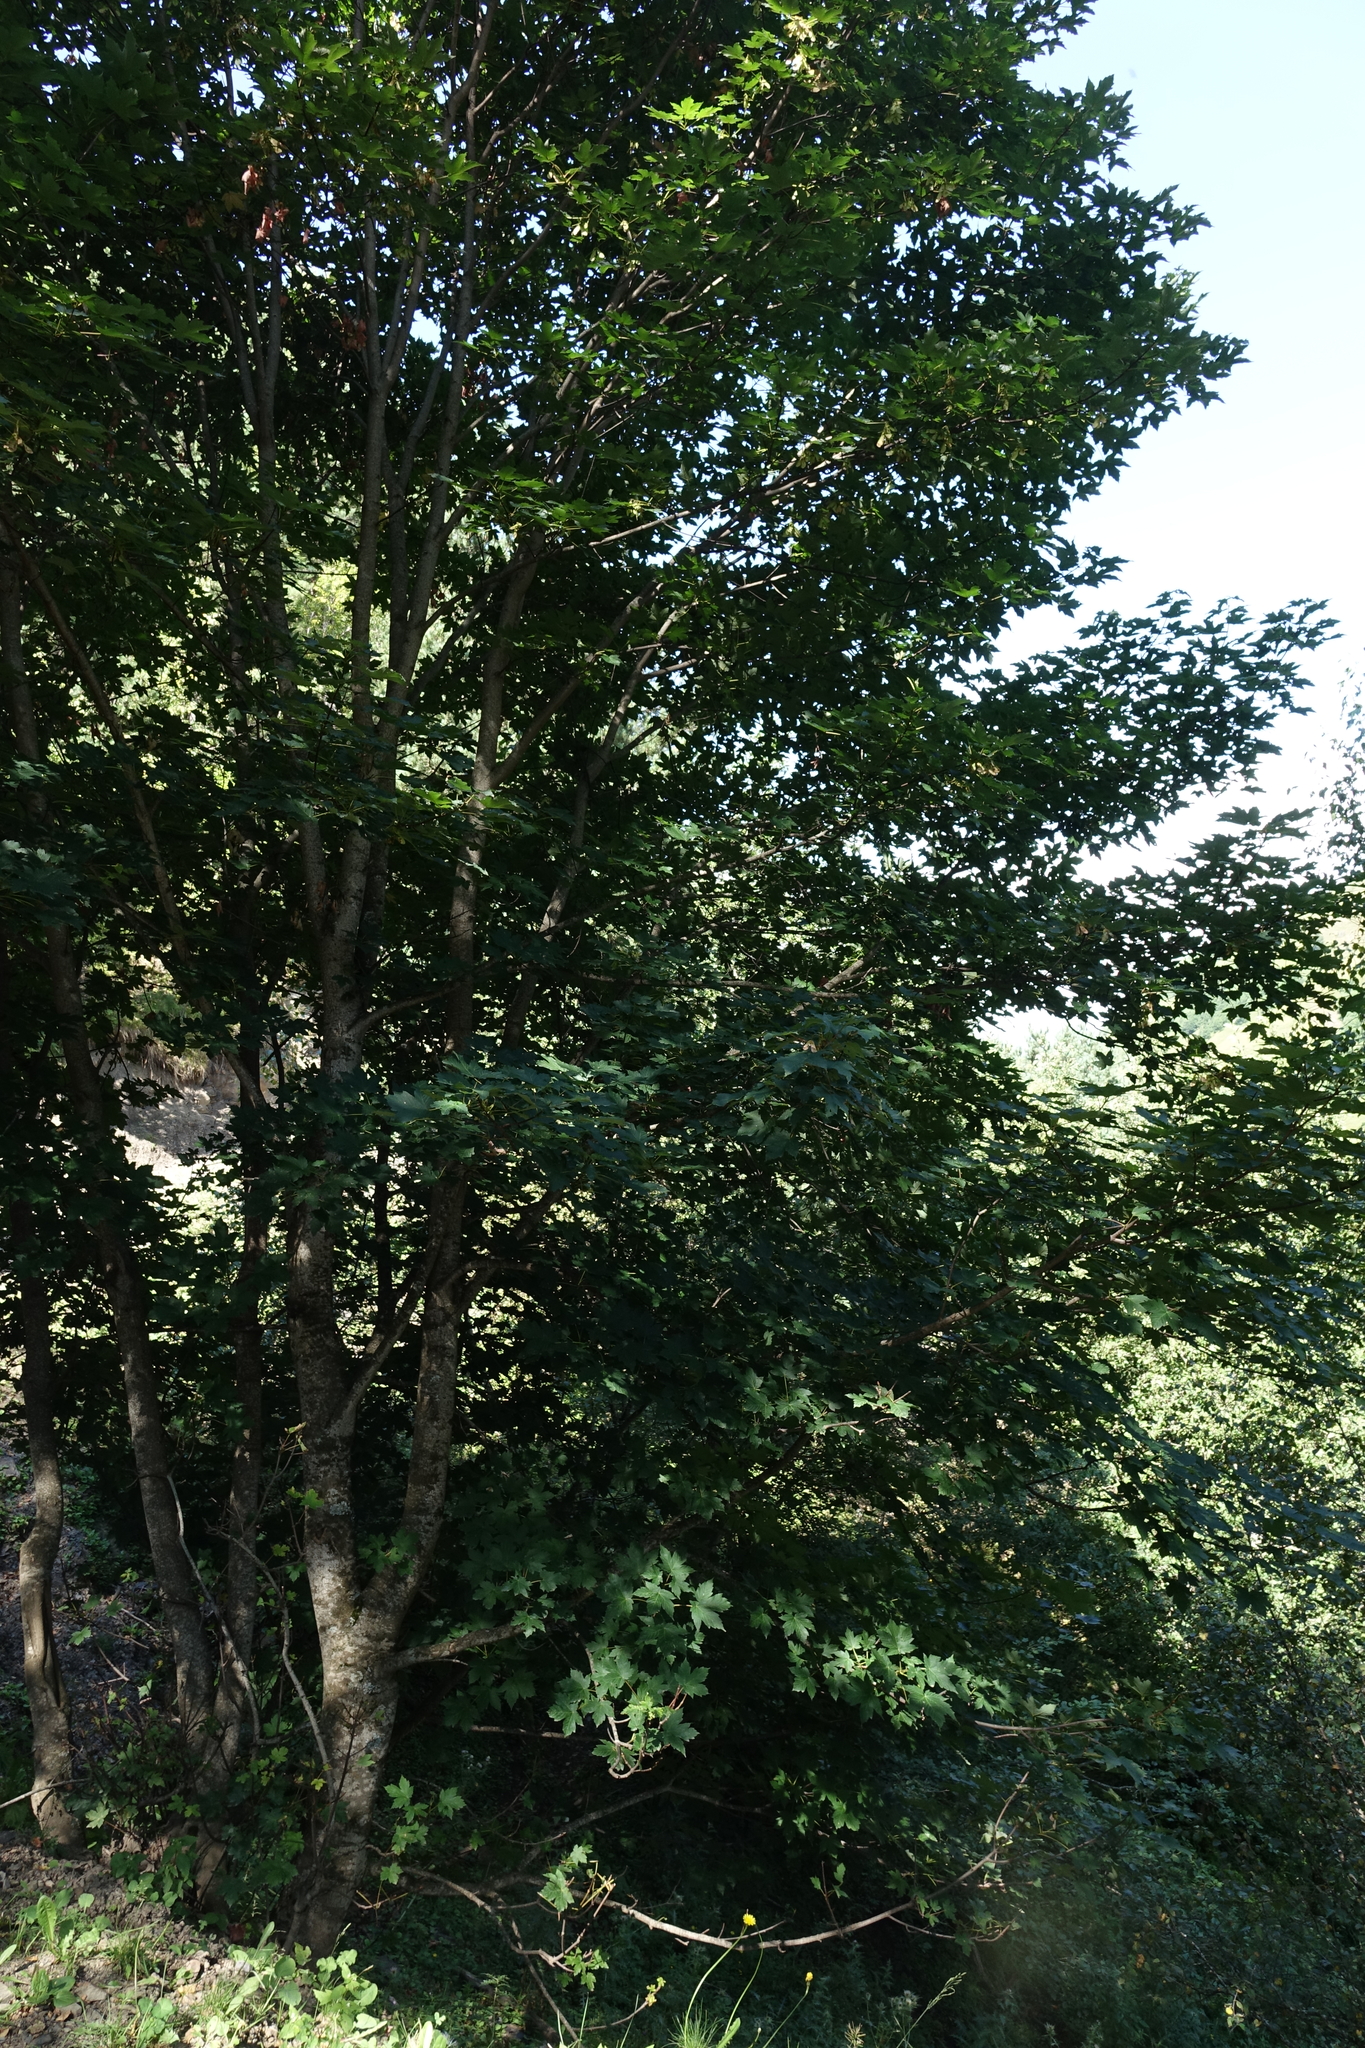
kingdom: Plantae
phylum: Tracheophyta
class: Magnoliopsida
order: Sapindales
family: Sapindaceae
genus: Acer
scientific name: Acer heldreichii
